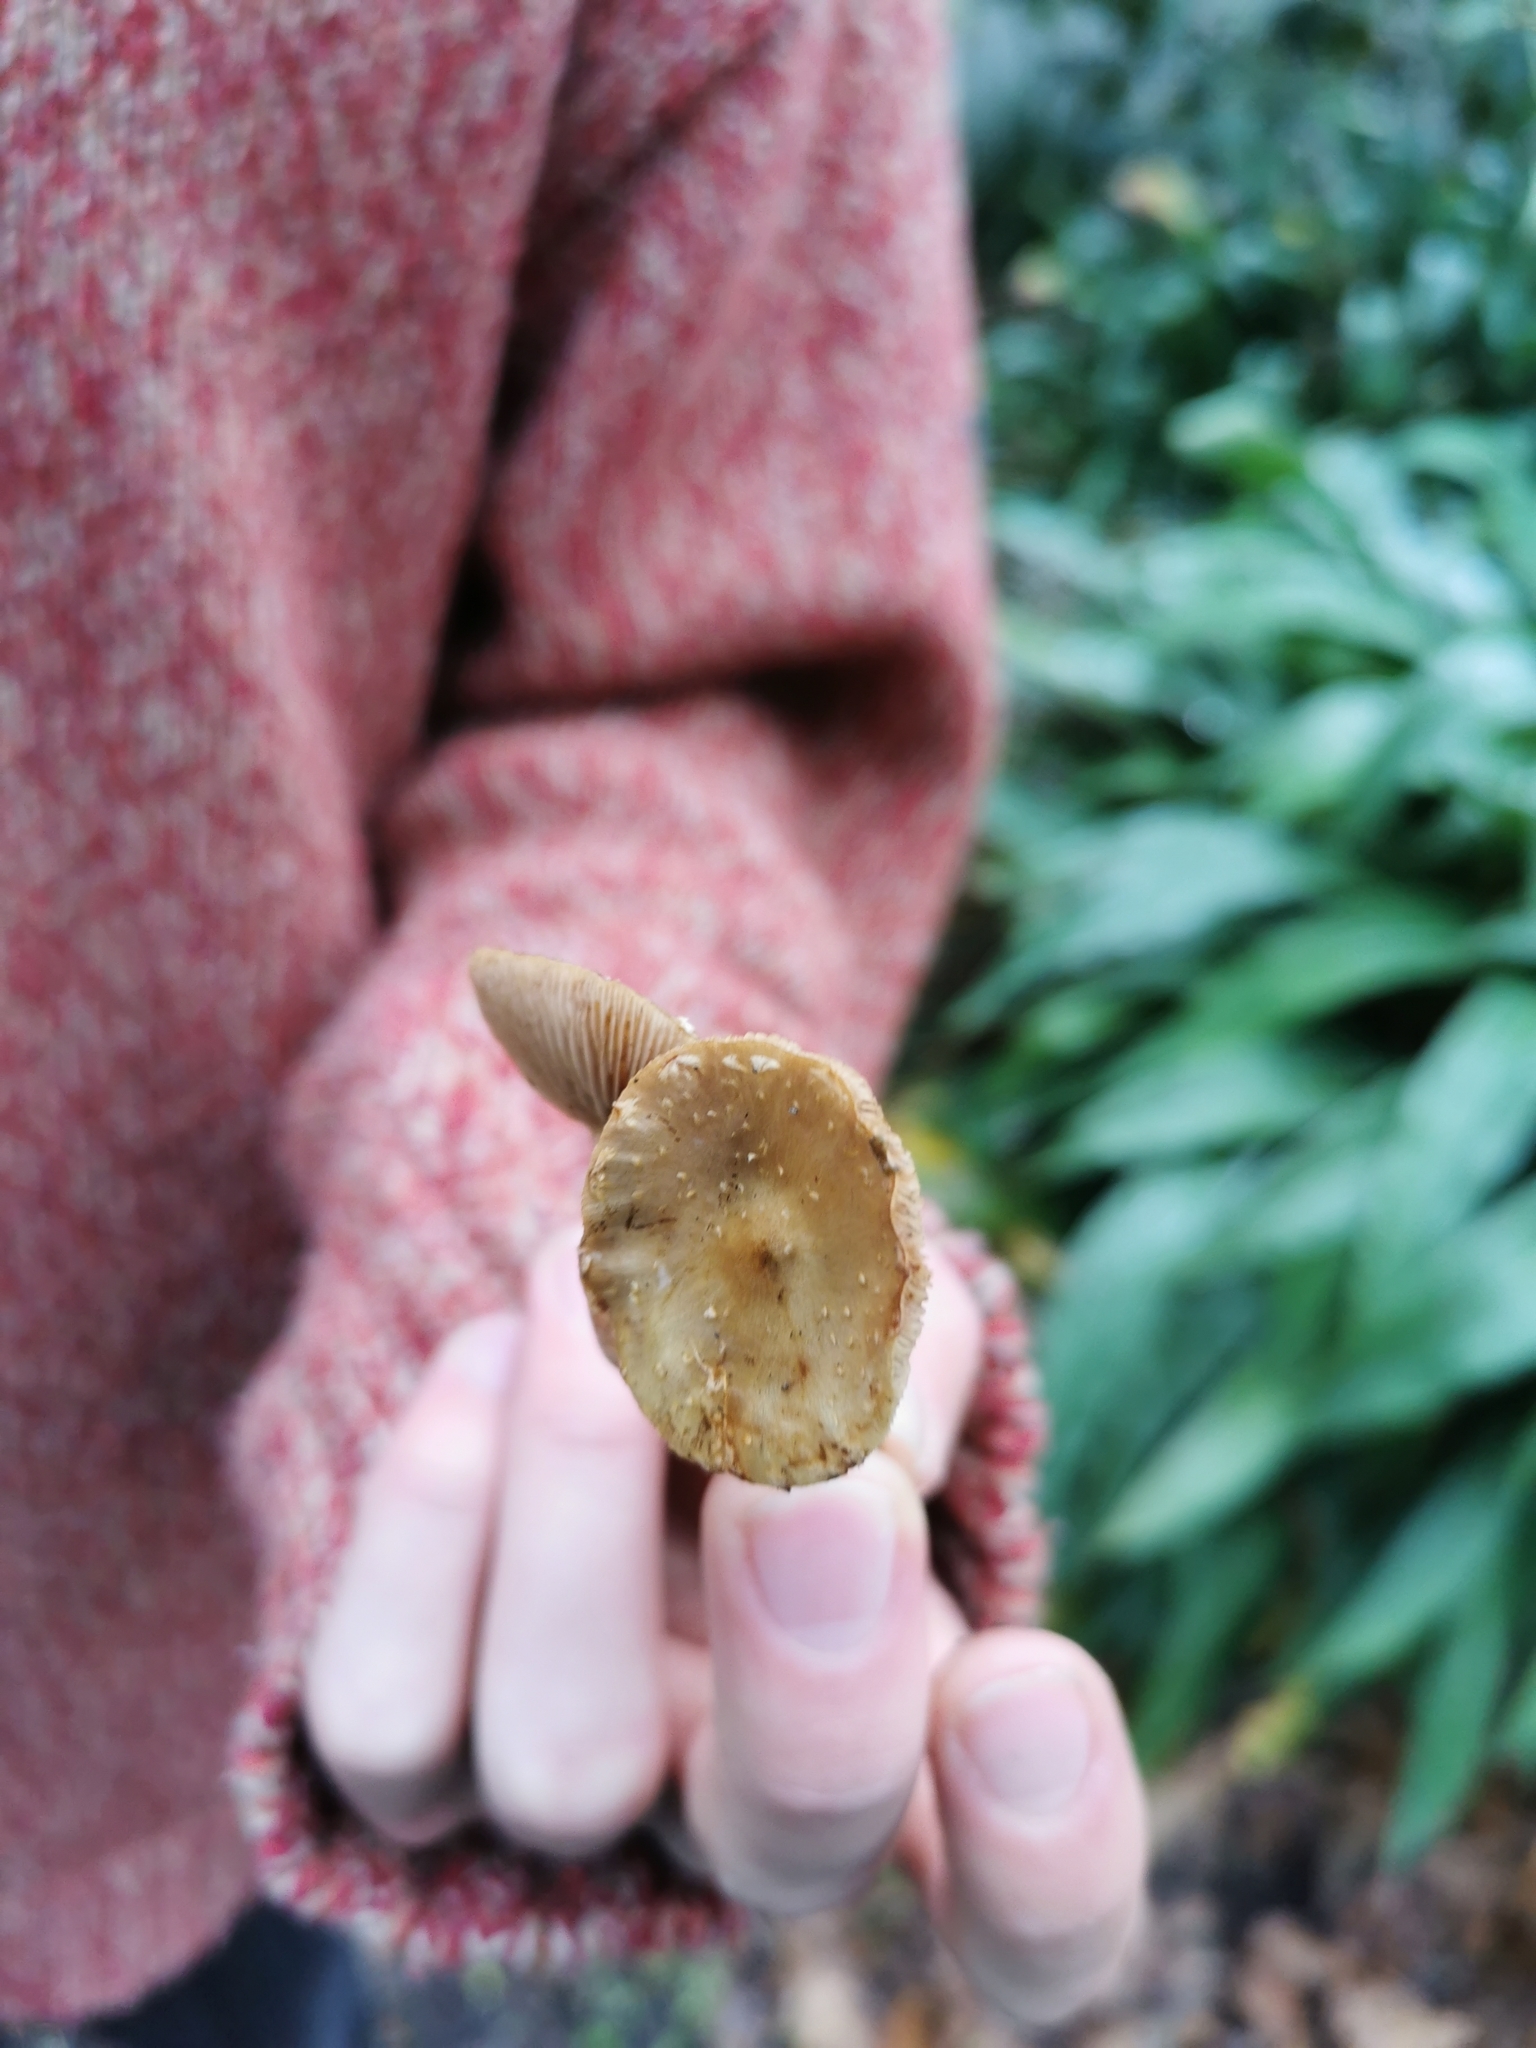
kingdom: Fungi
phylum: Basidiomycota
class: Agaricomycetes
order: Agaricales
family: Strophariaceae
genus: Pholiota
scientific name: Pholiota subflammans
